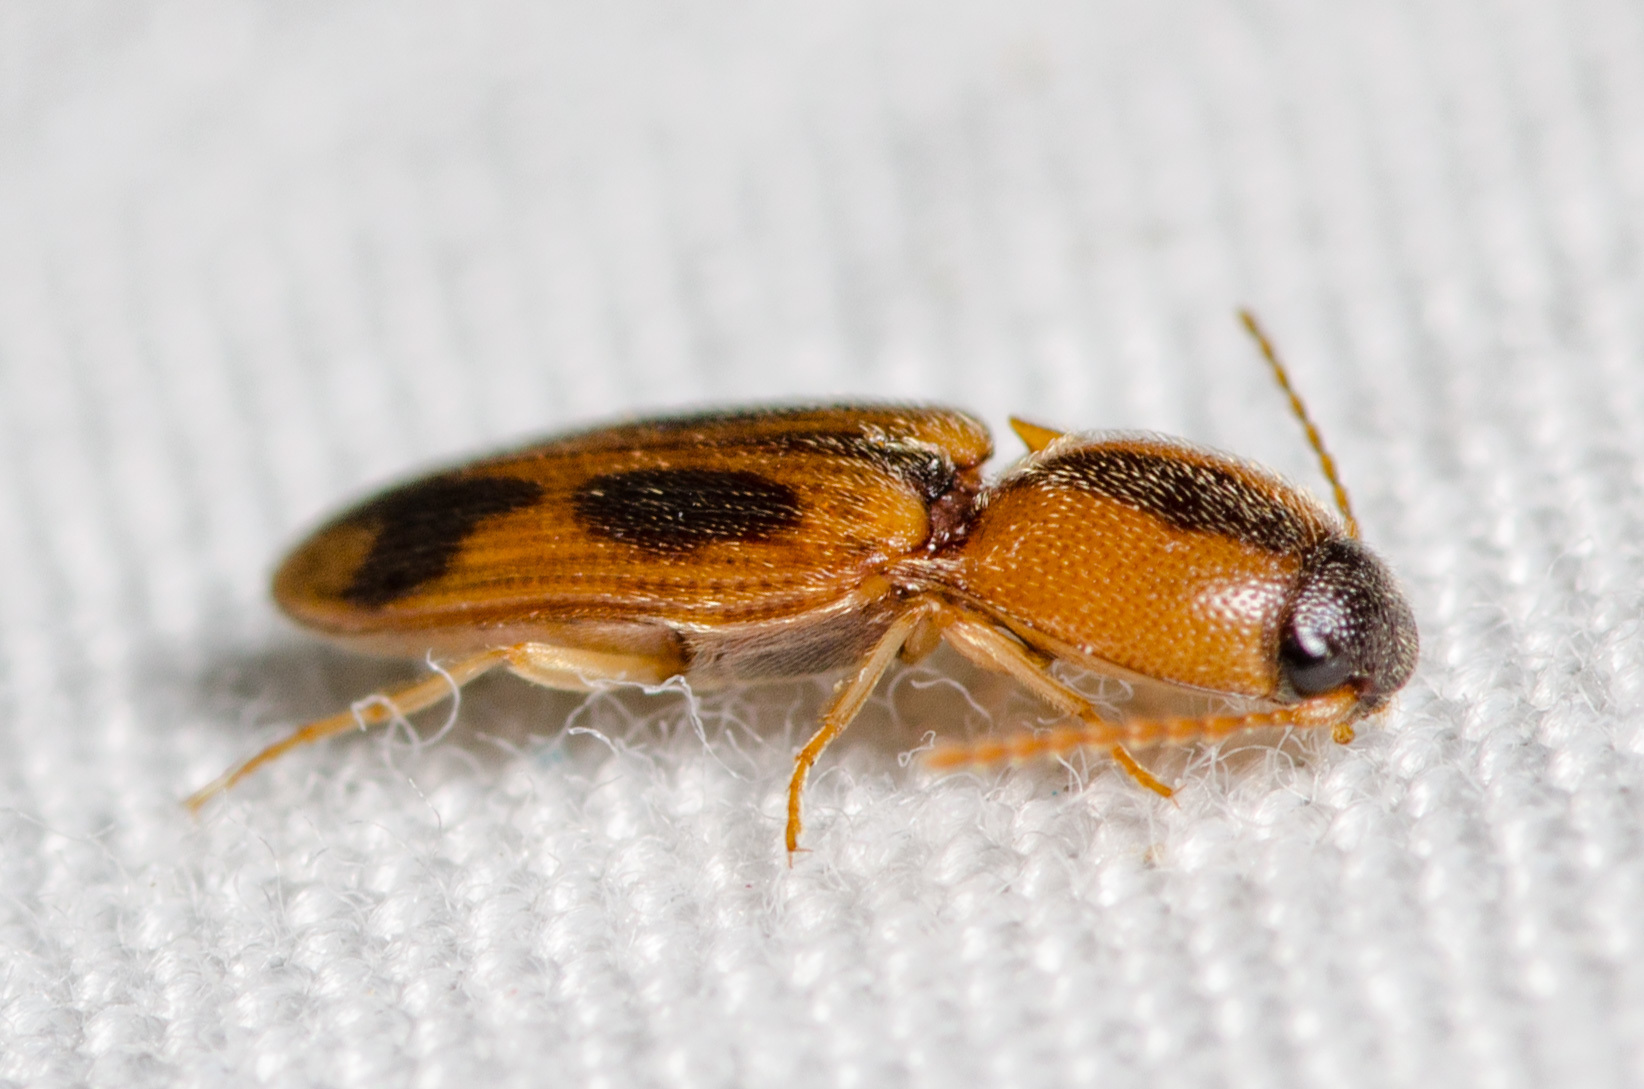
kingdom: Animalia
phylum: Arthropoda
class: Insecta
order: Coleoptera
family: Elateridae
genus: Aeolus
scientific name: Aeolus
